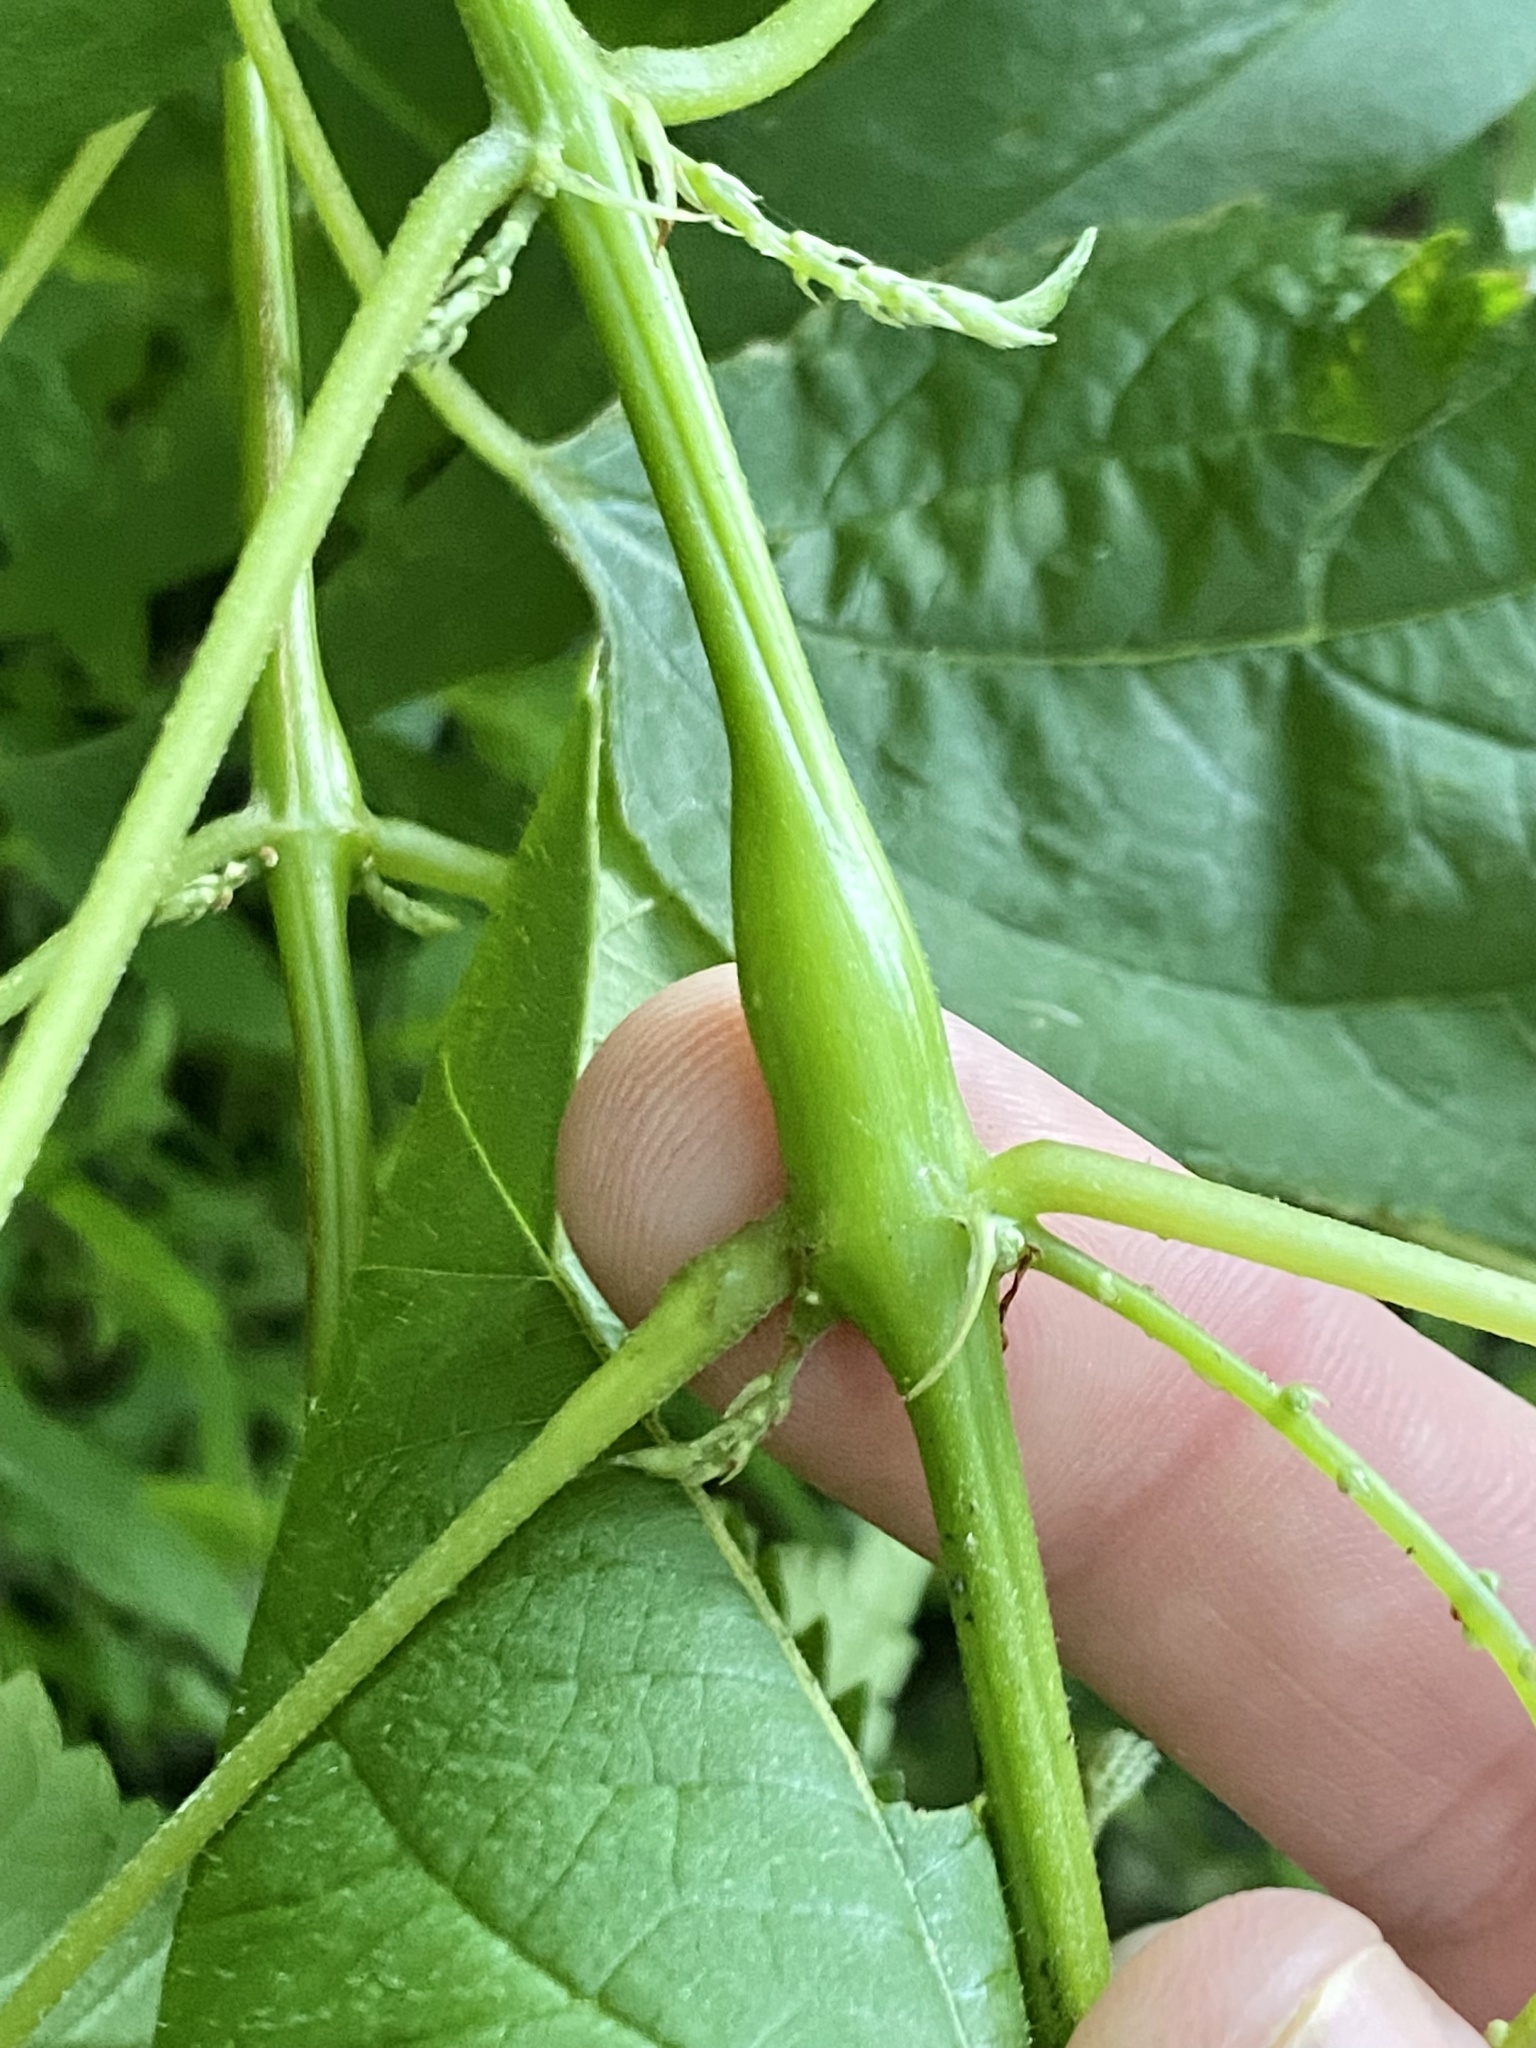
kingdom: Animalia
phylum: Arthropoda
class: Insecta
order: Diptera
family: Cecidomyiidae
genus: Neolasioptera
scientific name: Neolasioptera boehmeriae
